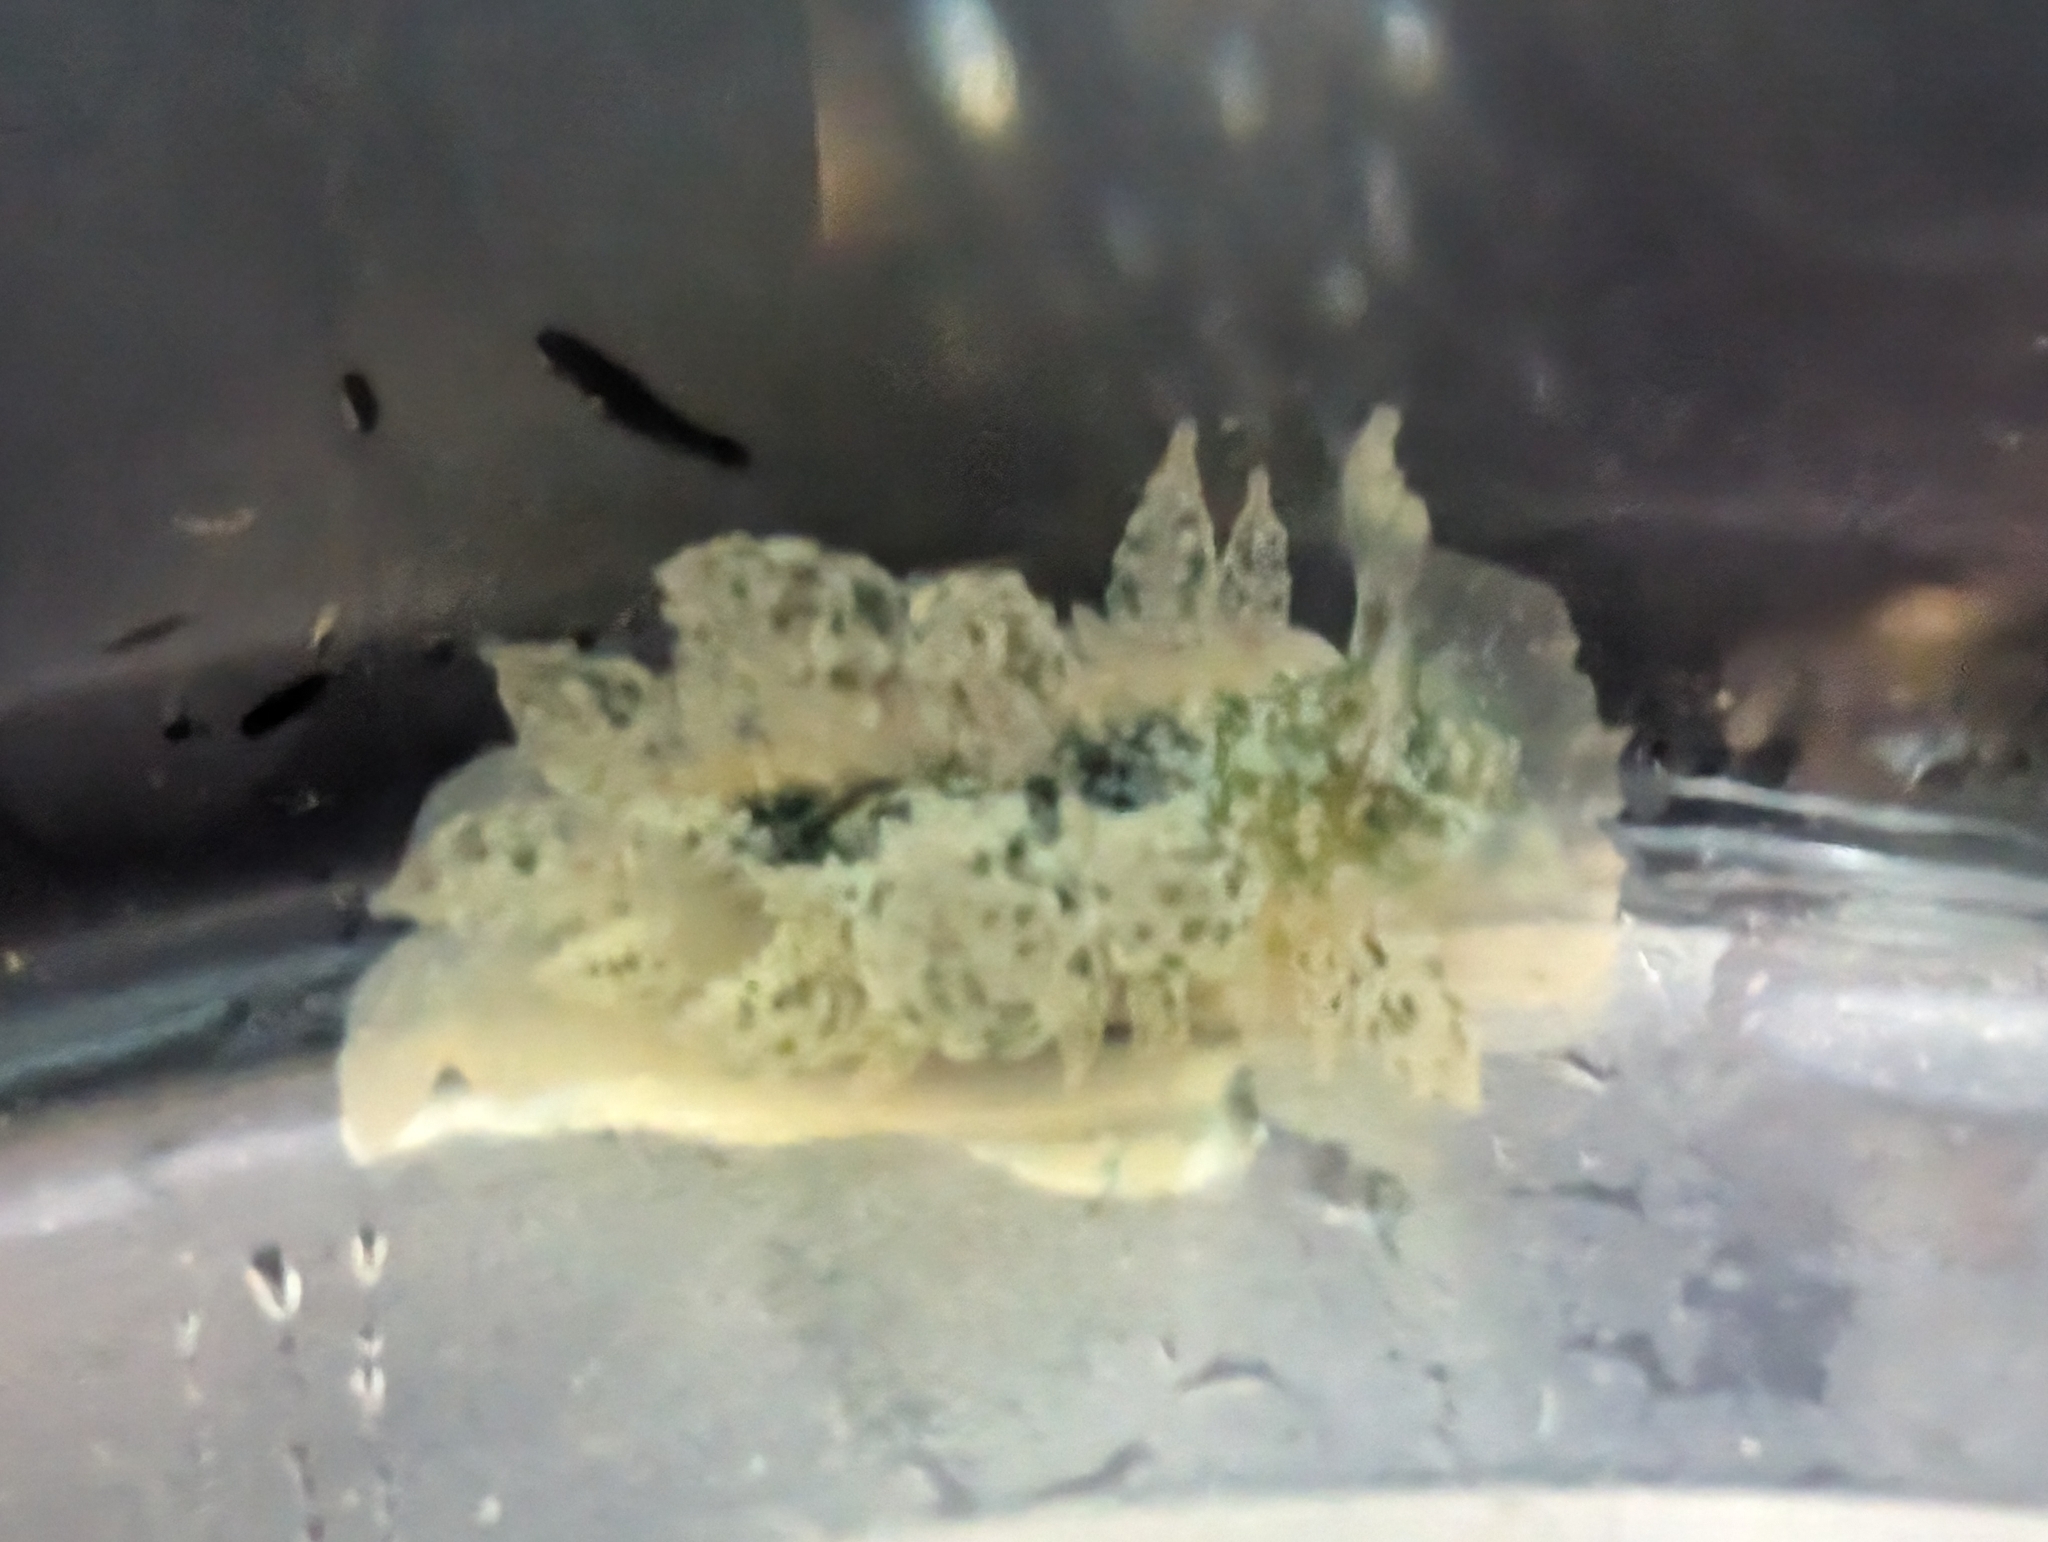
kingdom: Animalia
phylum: Mollusca
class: Gastropoda
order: Nudibranchia
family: Dironidae
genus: Dirona
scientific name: Dirona picta
